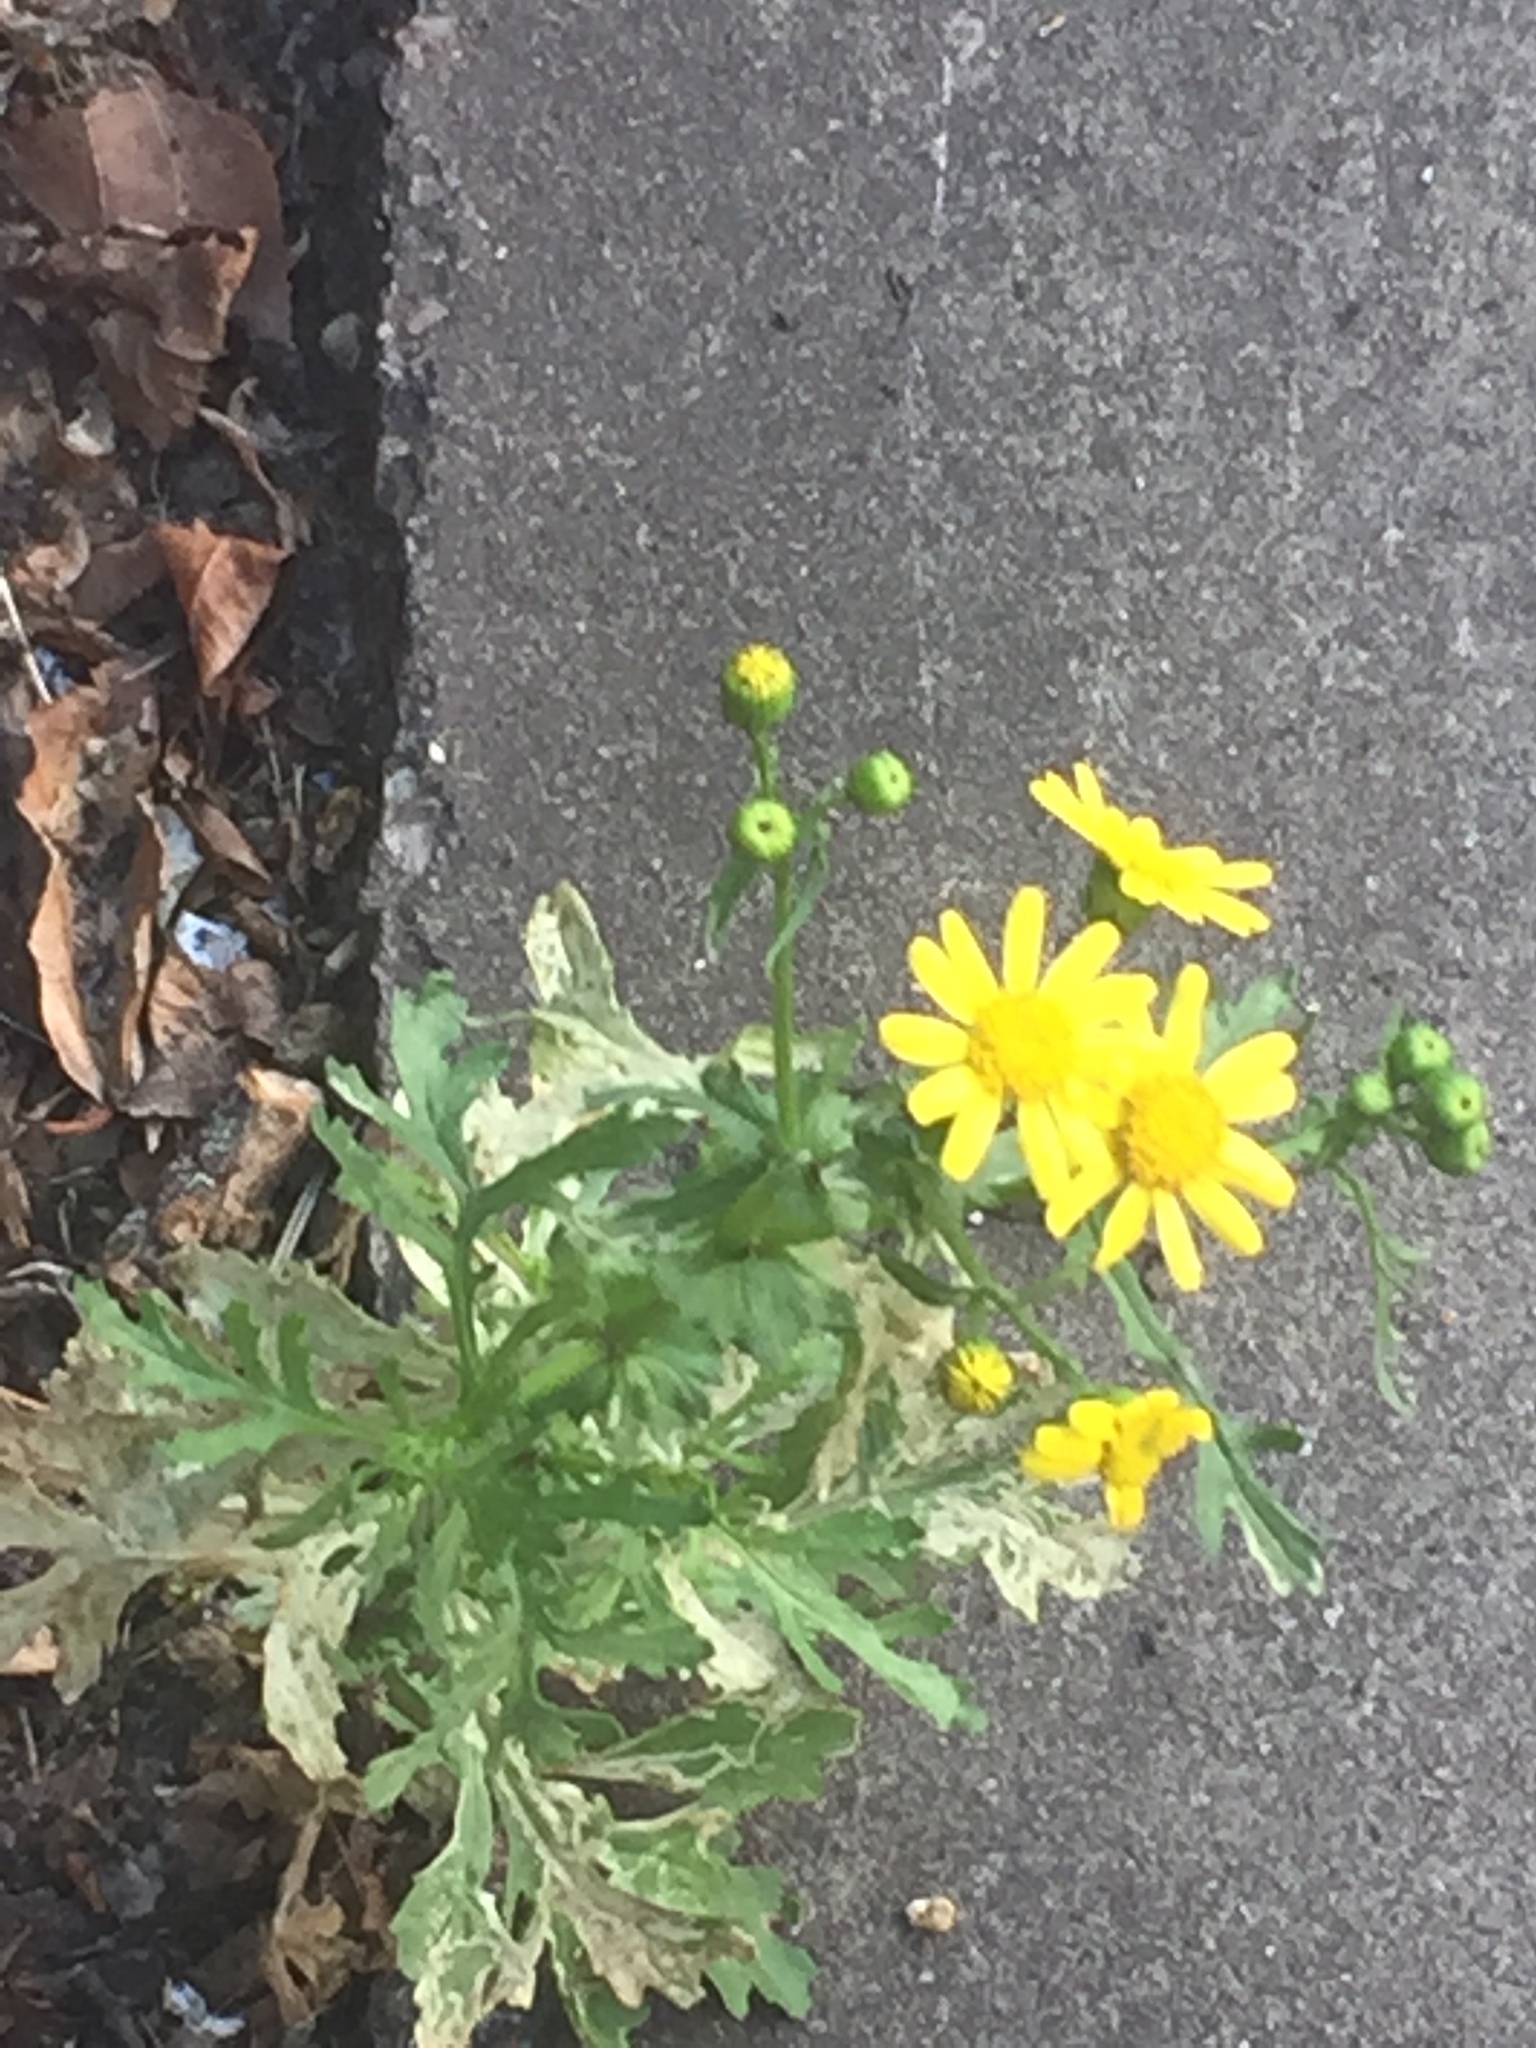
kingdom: Plantae
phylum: Tracheophyta
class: Magnoliopsida
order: Asterales
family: Asteraceae
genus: Senecio
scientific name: Senecio squalidus
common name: Oxford ragwort
